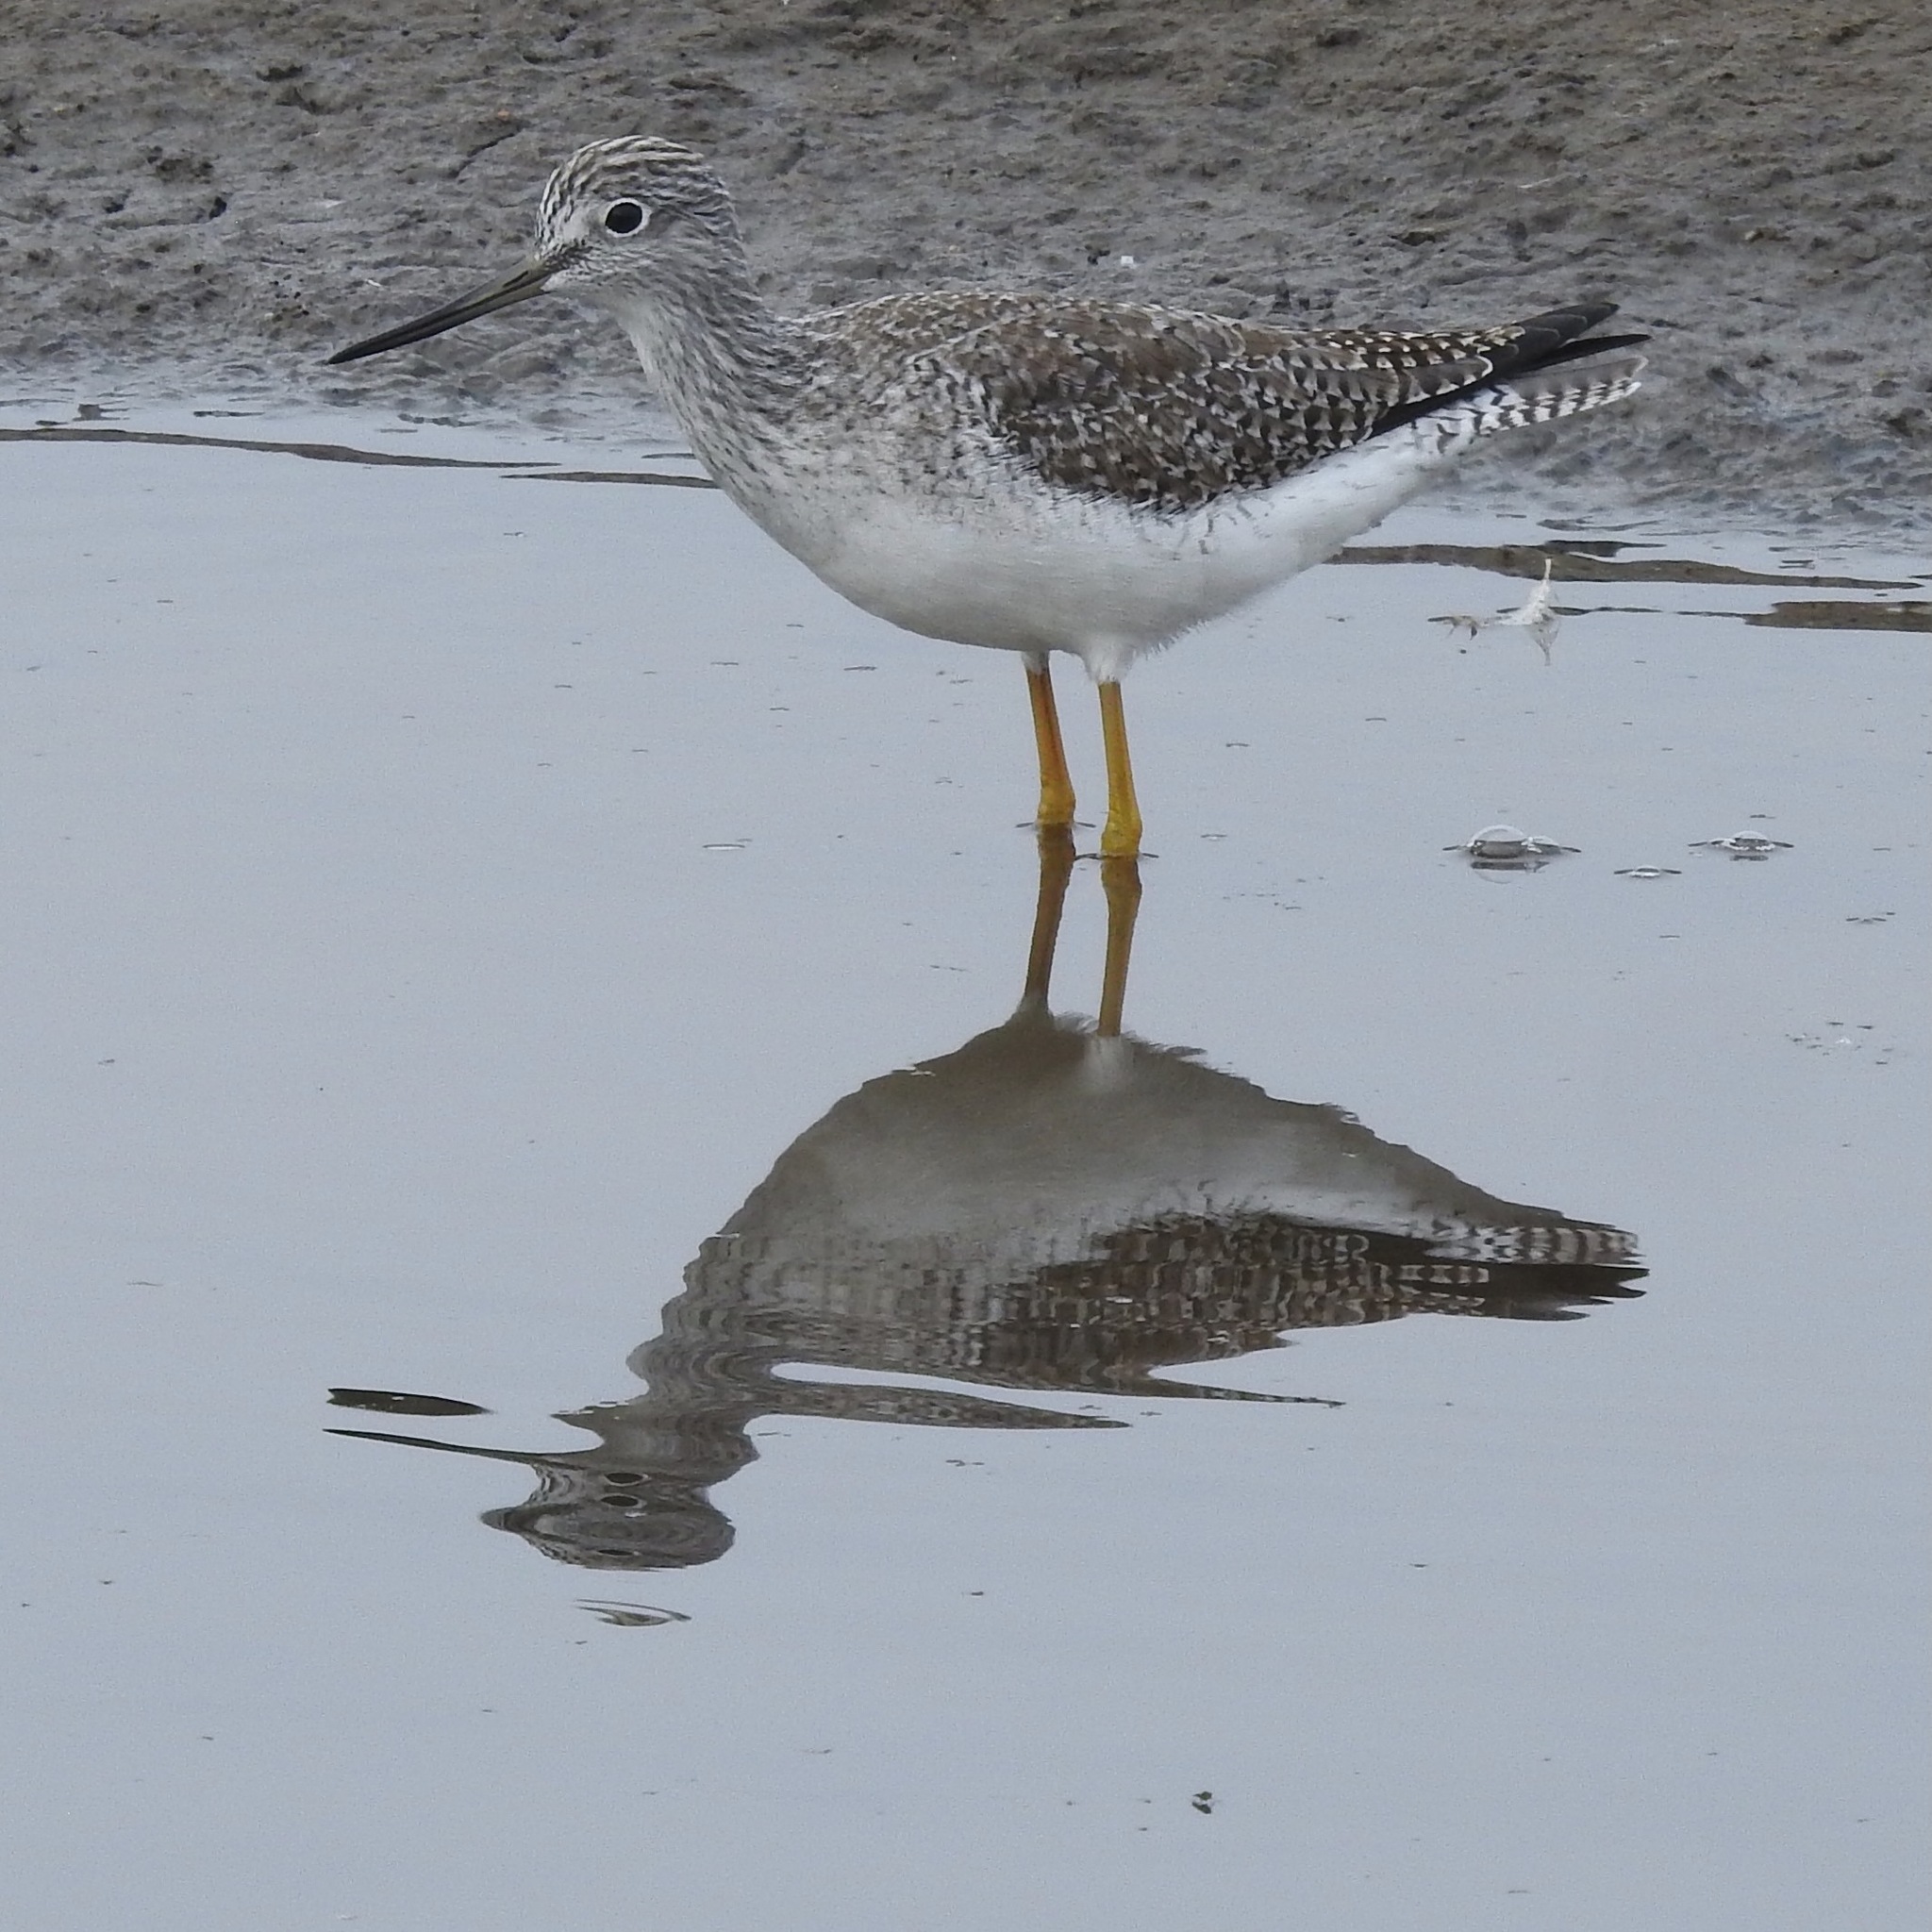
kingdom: Animalia
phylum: Chordata
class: Aves
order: Charadriiformes
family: Scolopacidae
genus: Tringa
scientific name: Tringa melanoleuca
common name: Greater yellowlegs
